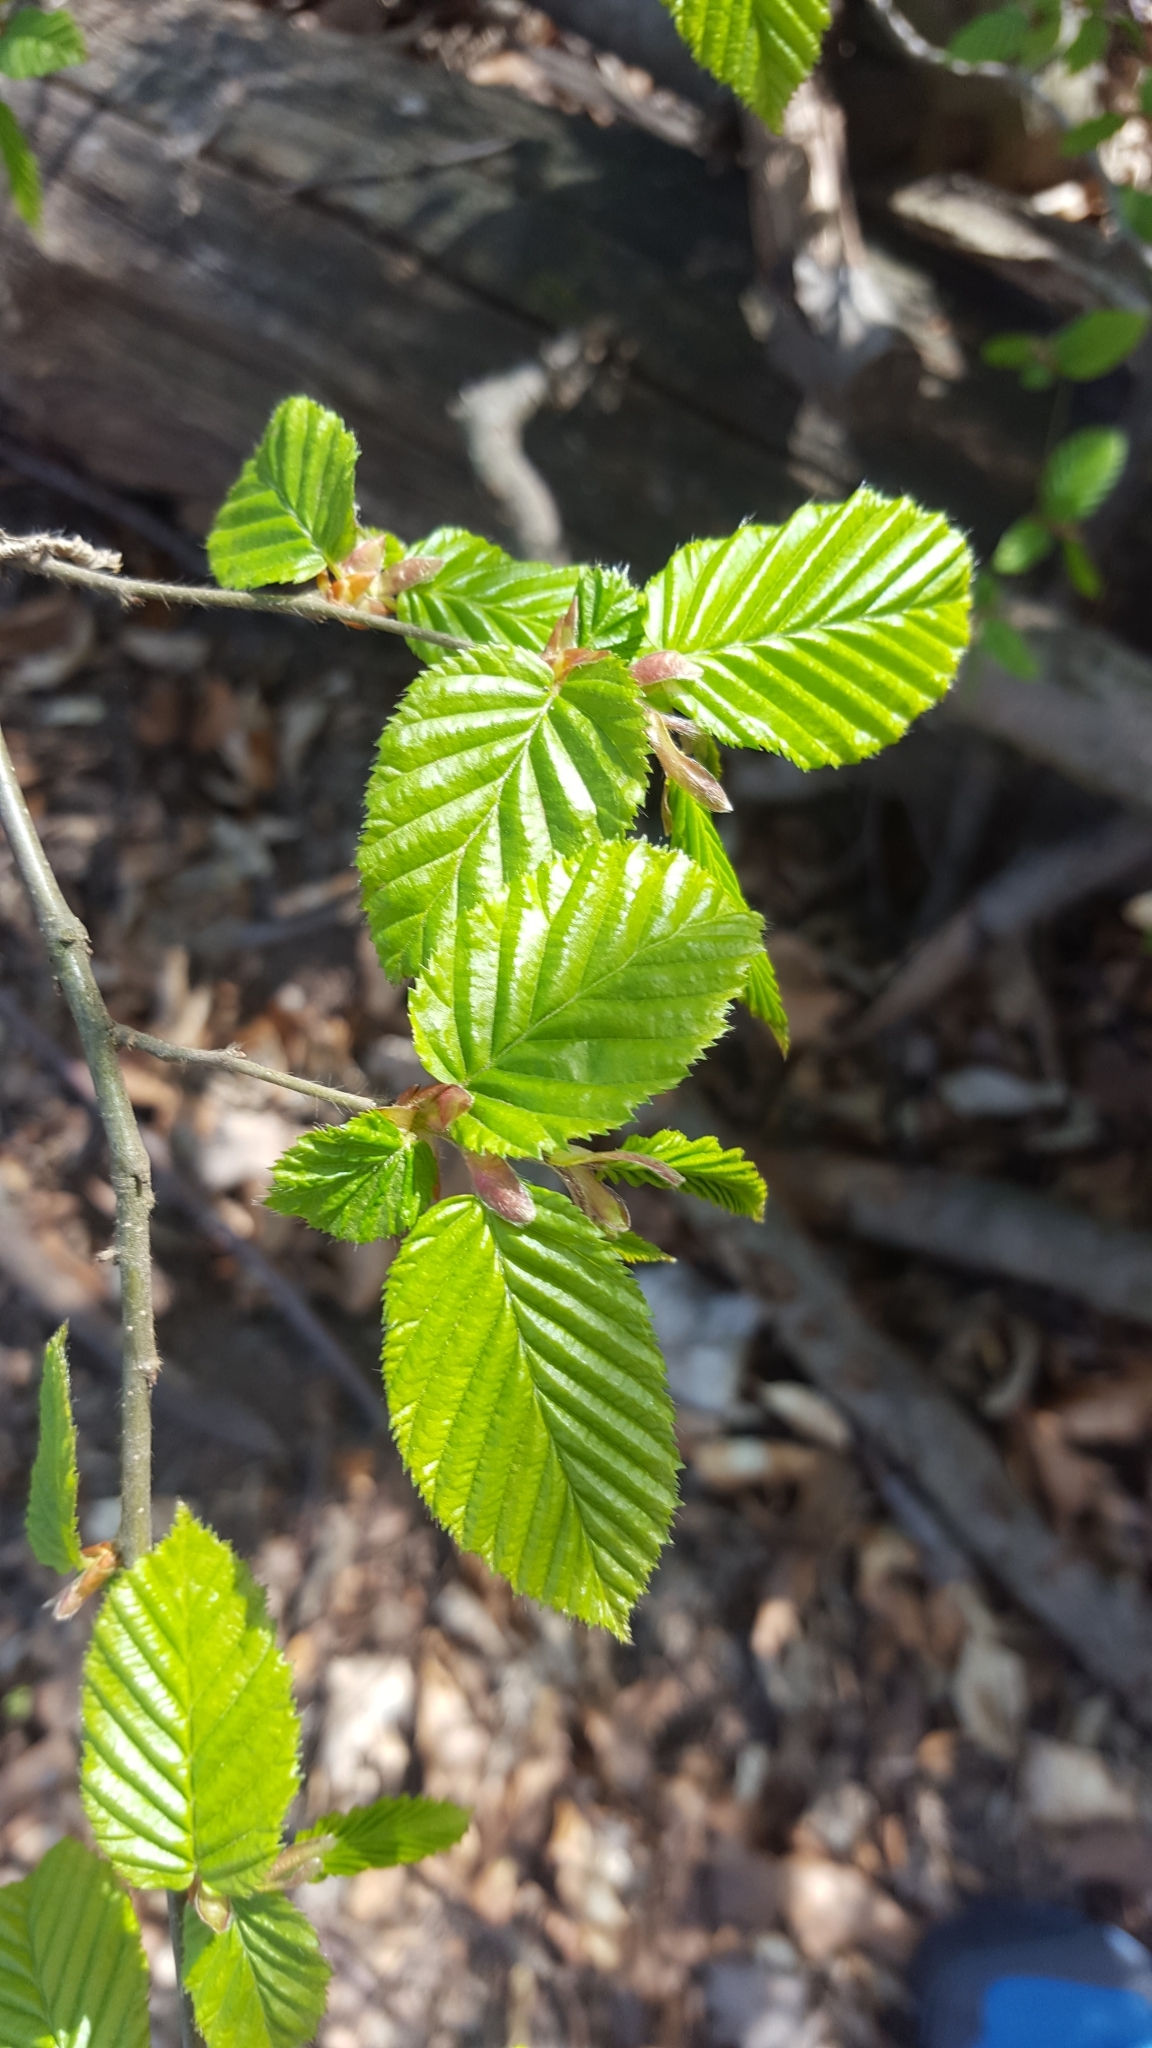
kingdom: Plantae
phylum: Tracheophyta
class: Magnoliopsida
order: Fagales
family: Betulaceae
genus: Carpinus
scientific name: Carpinus betulus
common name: Hornbeam
